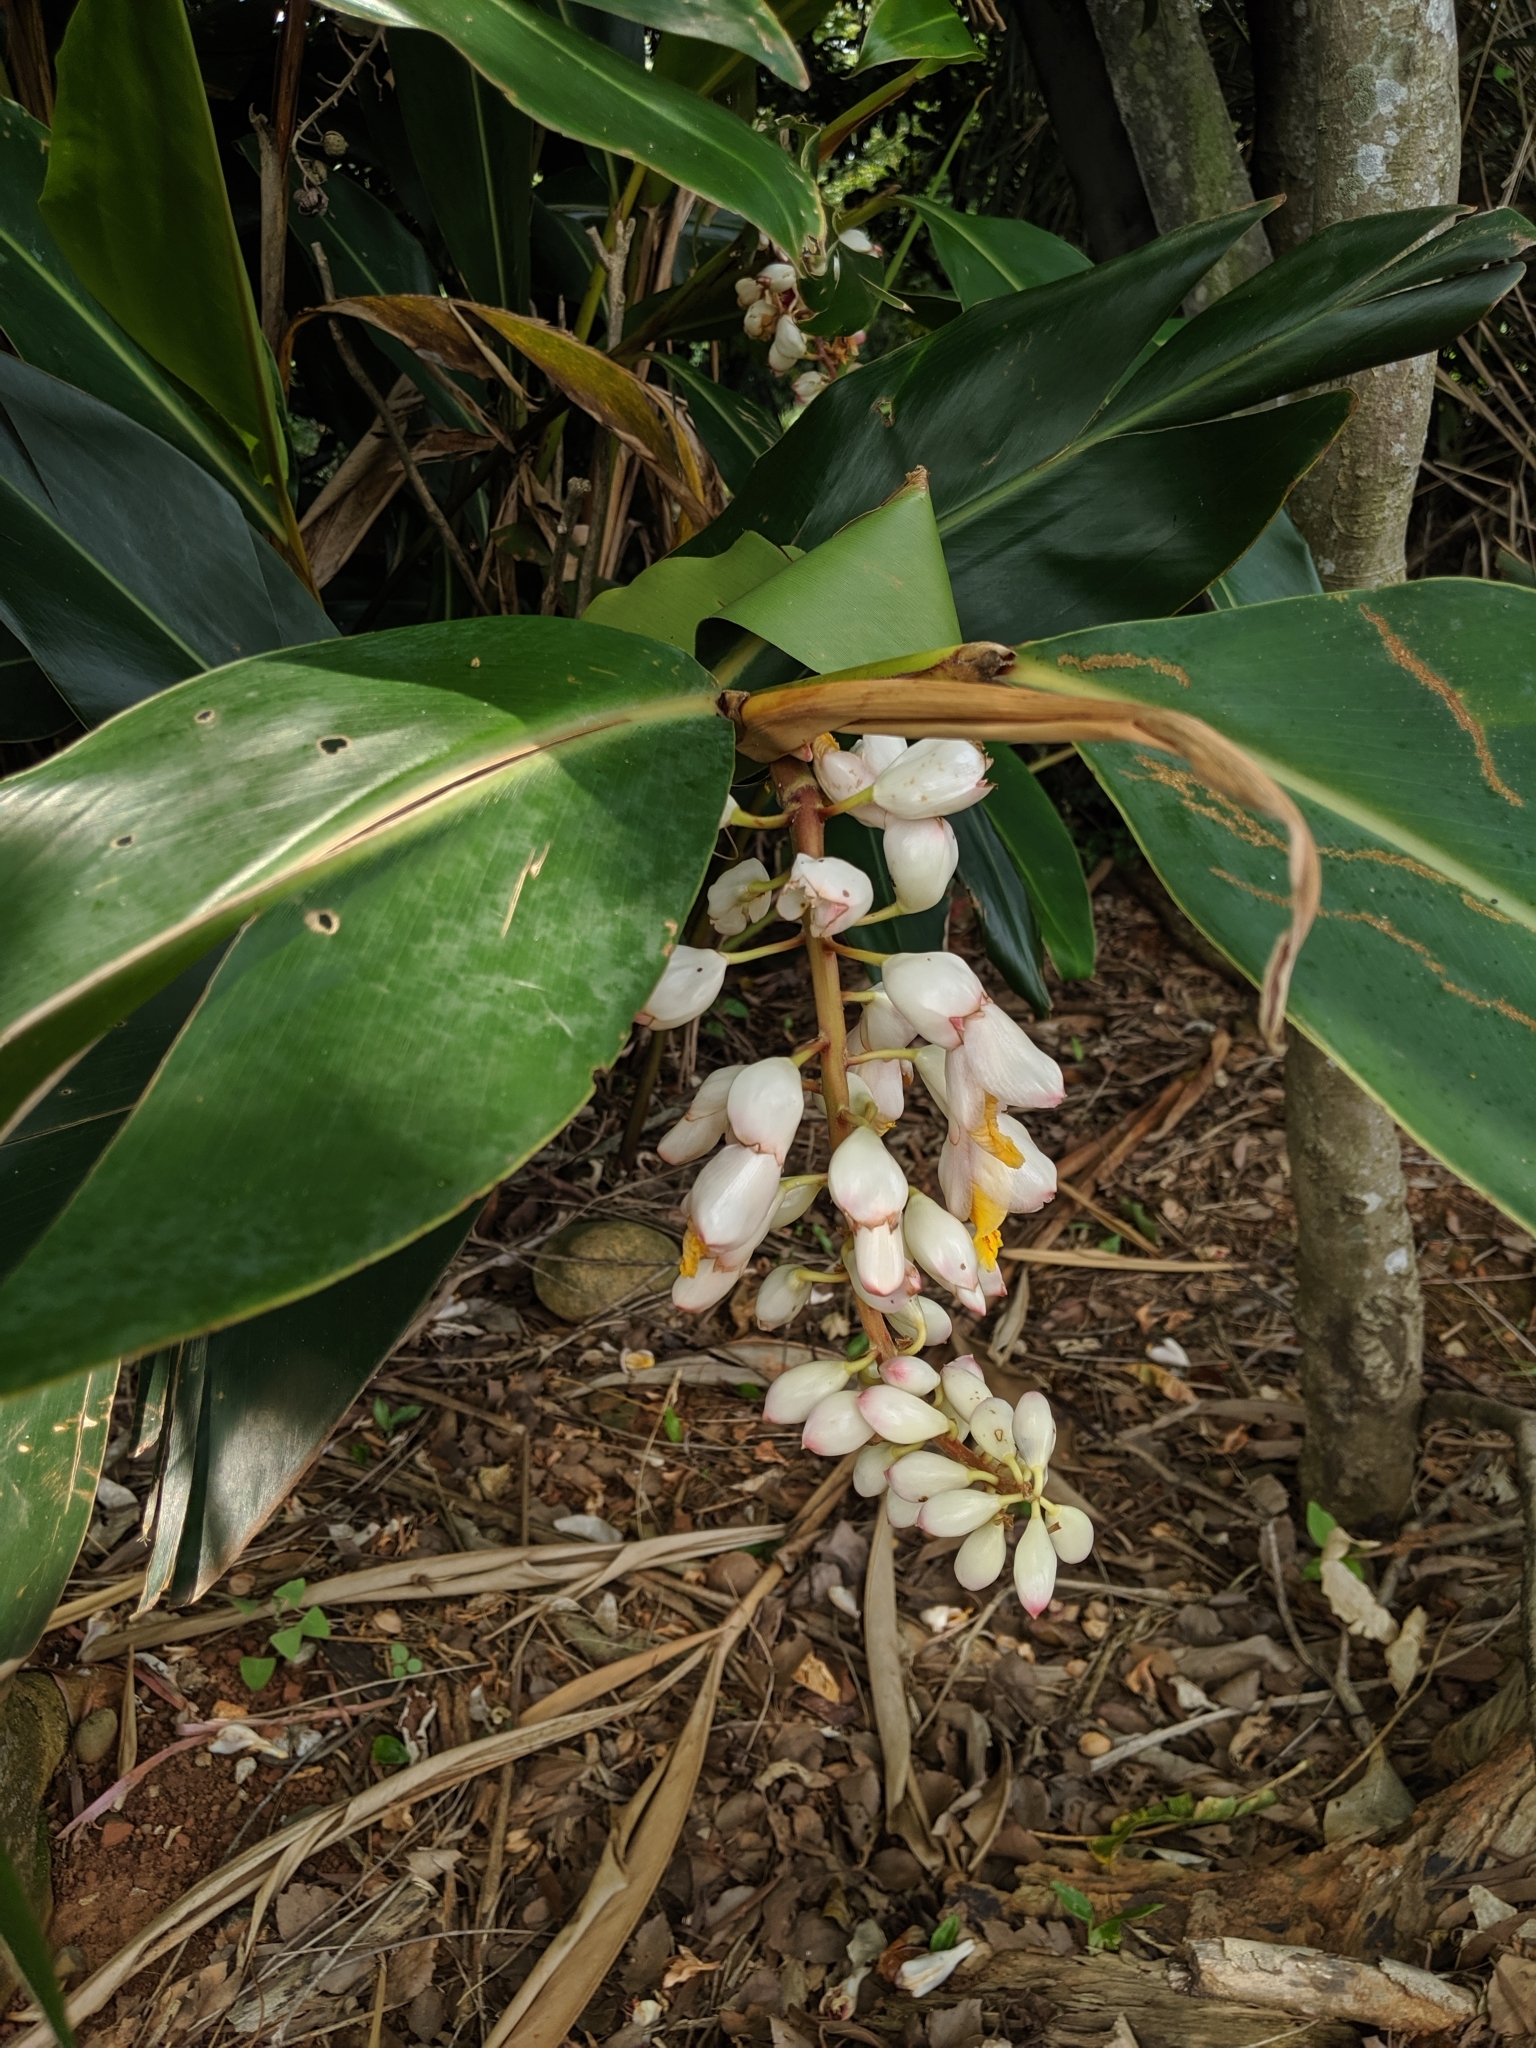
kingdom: Plantae
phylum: Tracheophyta
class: Liliopsida
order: Zingiberales
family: Zingiberaceae
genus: Alpinia
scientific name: Alpinia zerumbet
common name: Shellplant
